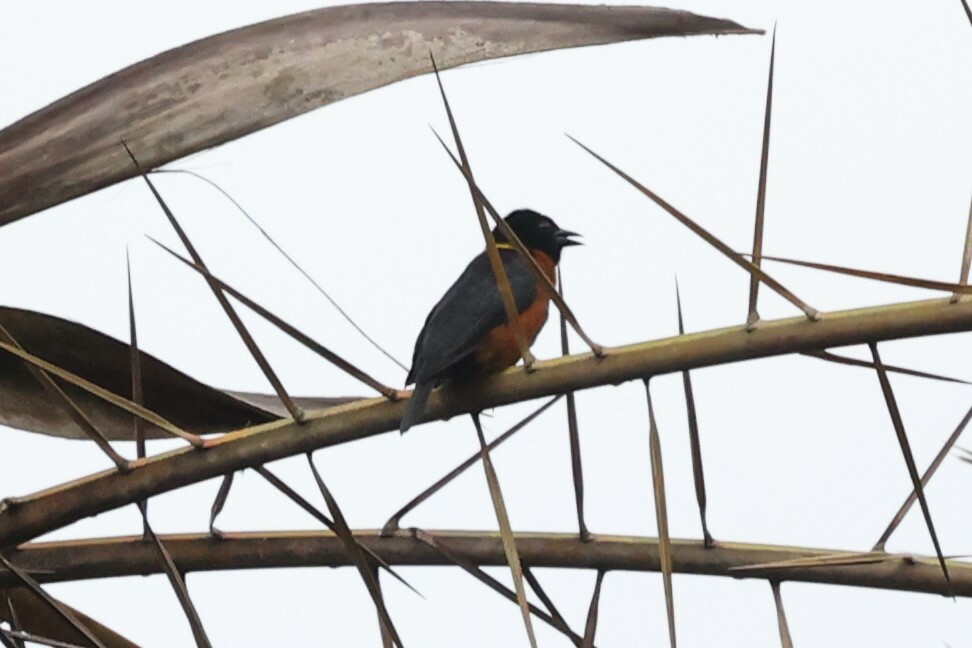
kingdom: Animalia
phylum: Chordata
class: Aves
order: Passeriformes
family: Ploceidae
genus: Ploceus
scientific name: Ploceus tricolor
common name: Yellow-mantled weaver
